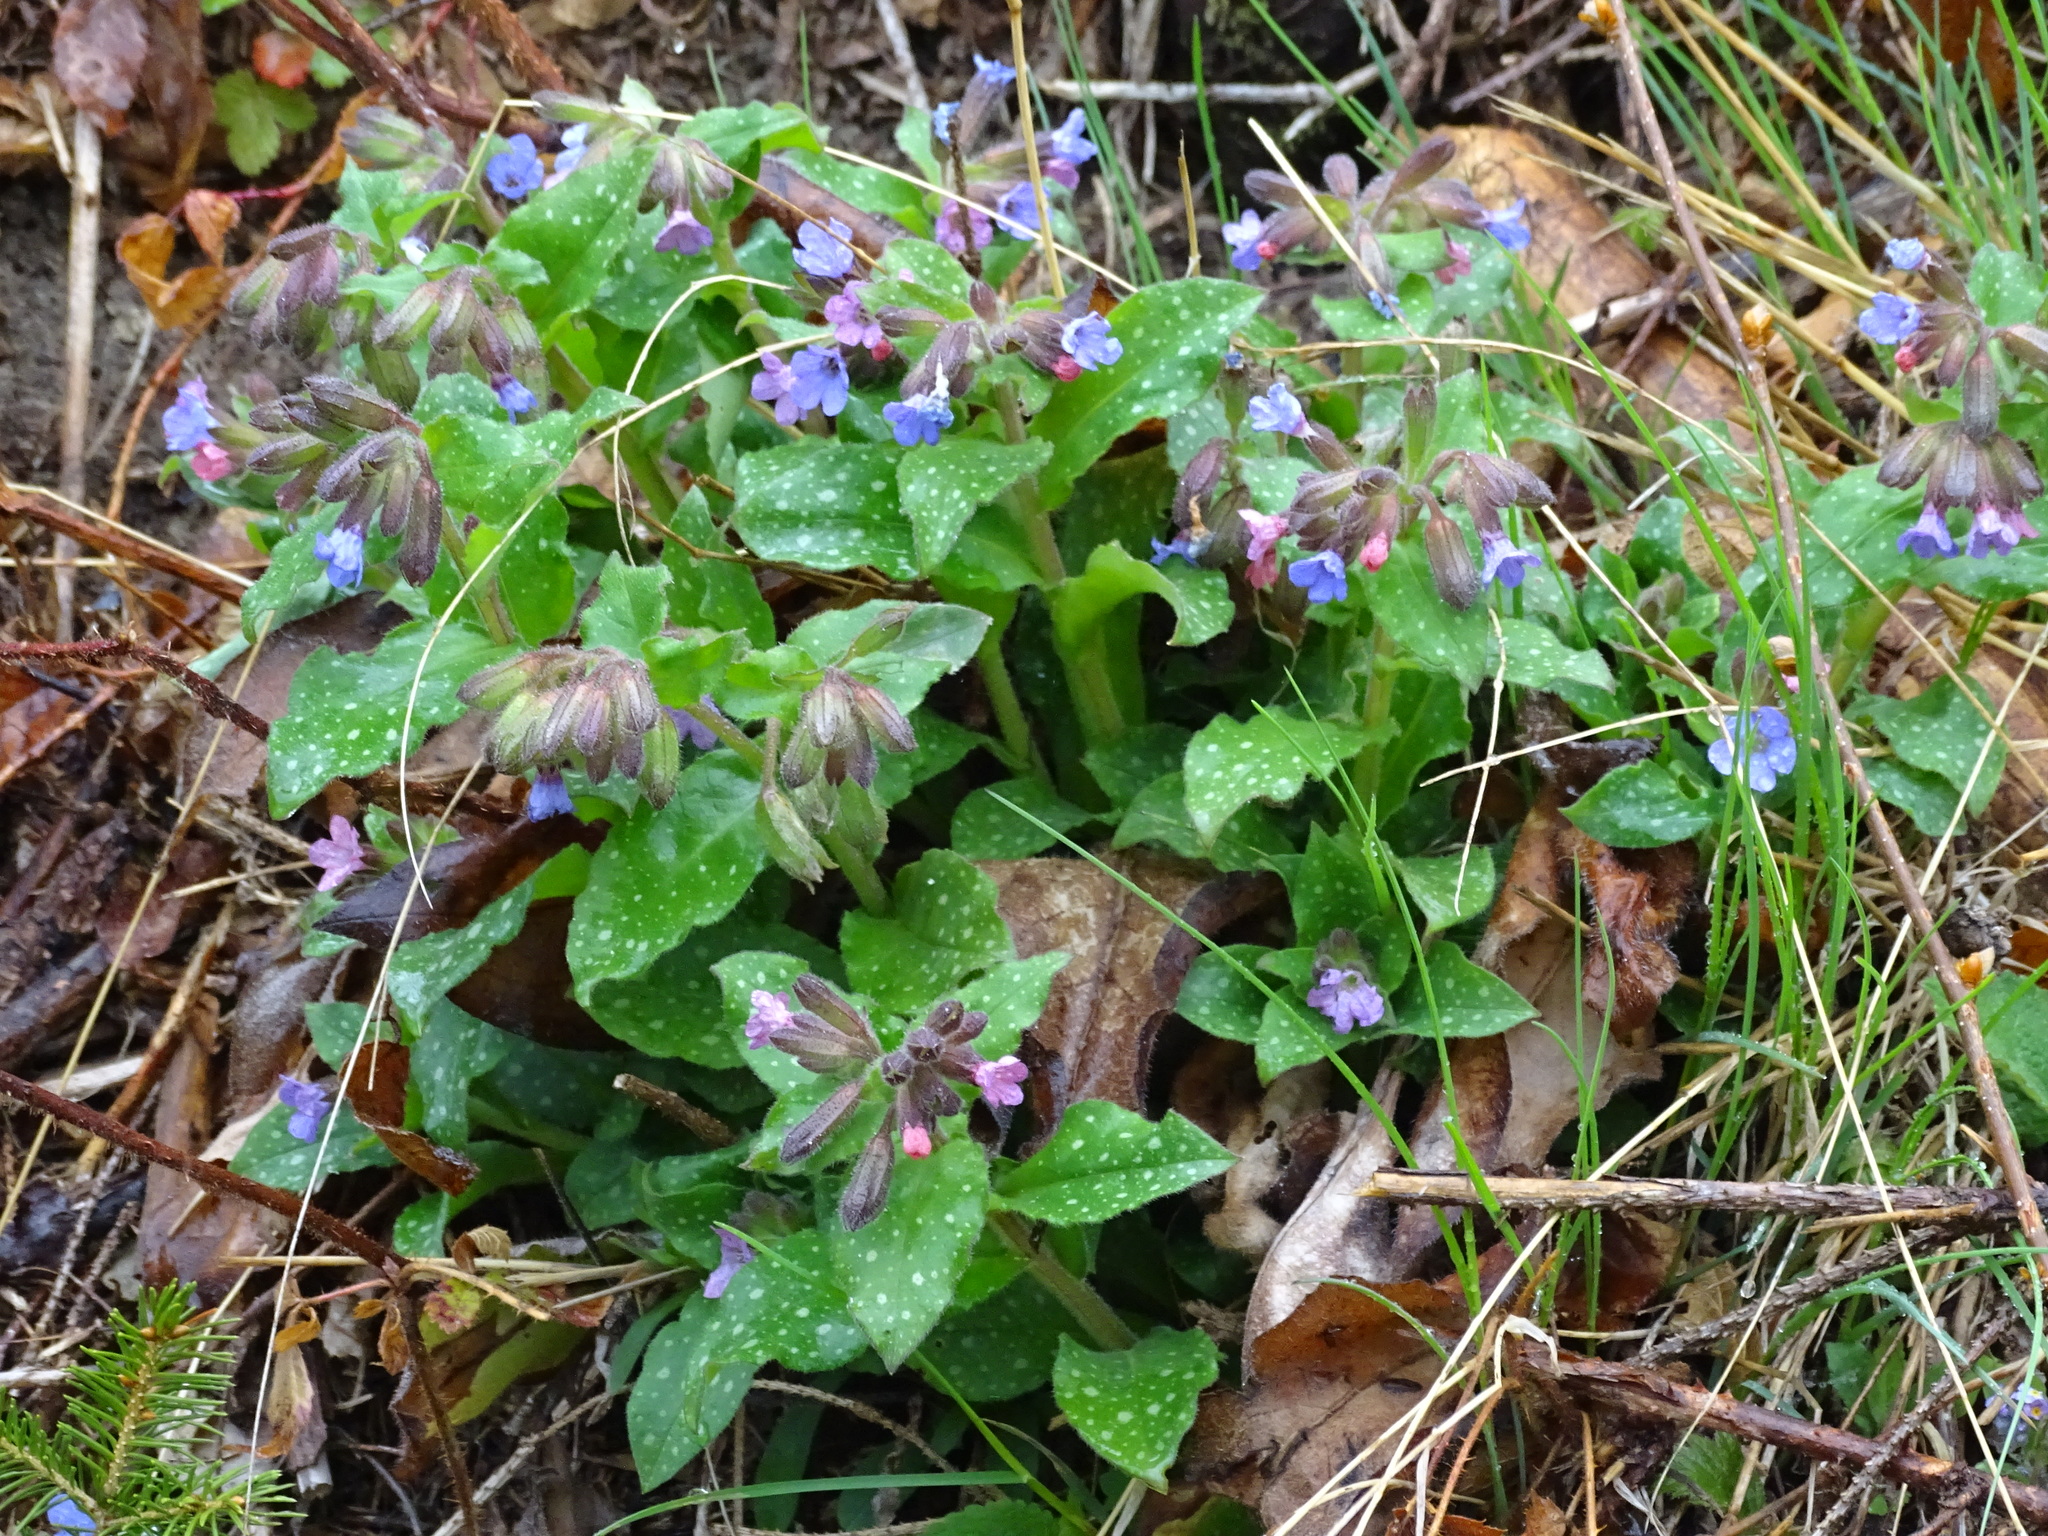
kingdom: Plantae
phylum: Tracheophyta
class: Magnoliopsida
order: Boraginales
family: Boraginaceae
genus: Pulmonaria
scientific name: Pulmonaria officinalis
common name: Lungwort
